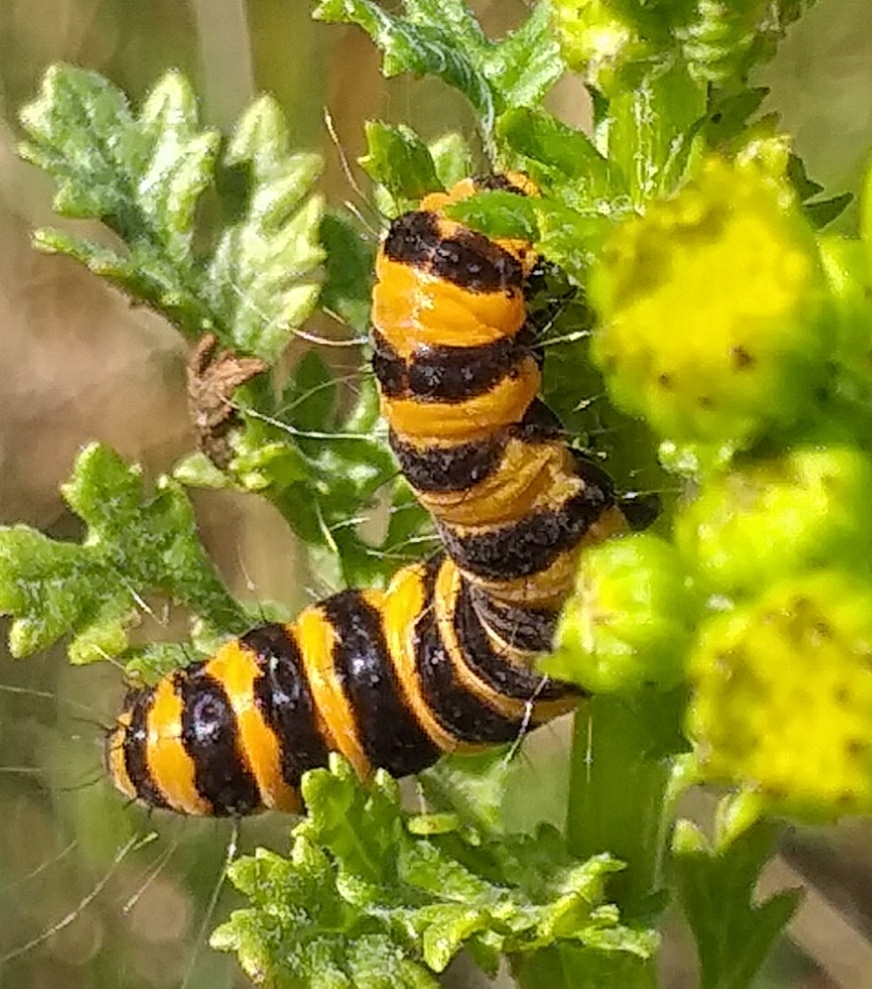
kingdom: Animalia
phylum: Arthropoda
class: Insecta
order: Lepidoptera
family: Erebidae
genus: Tyria
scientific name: Tyria jacobaeae
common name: Cinnabar
